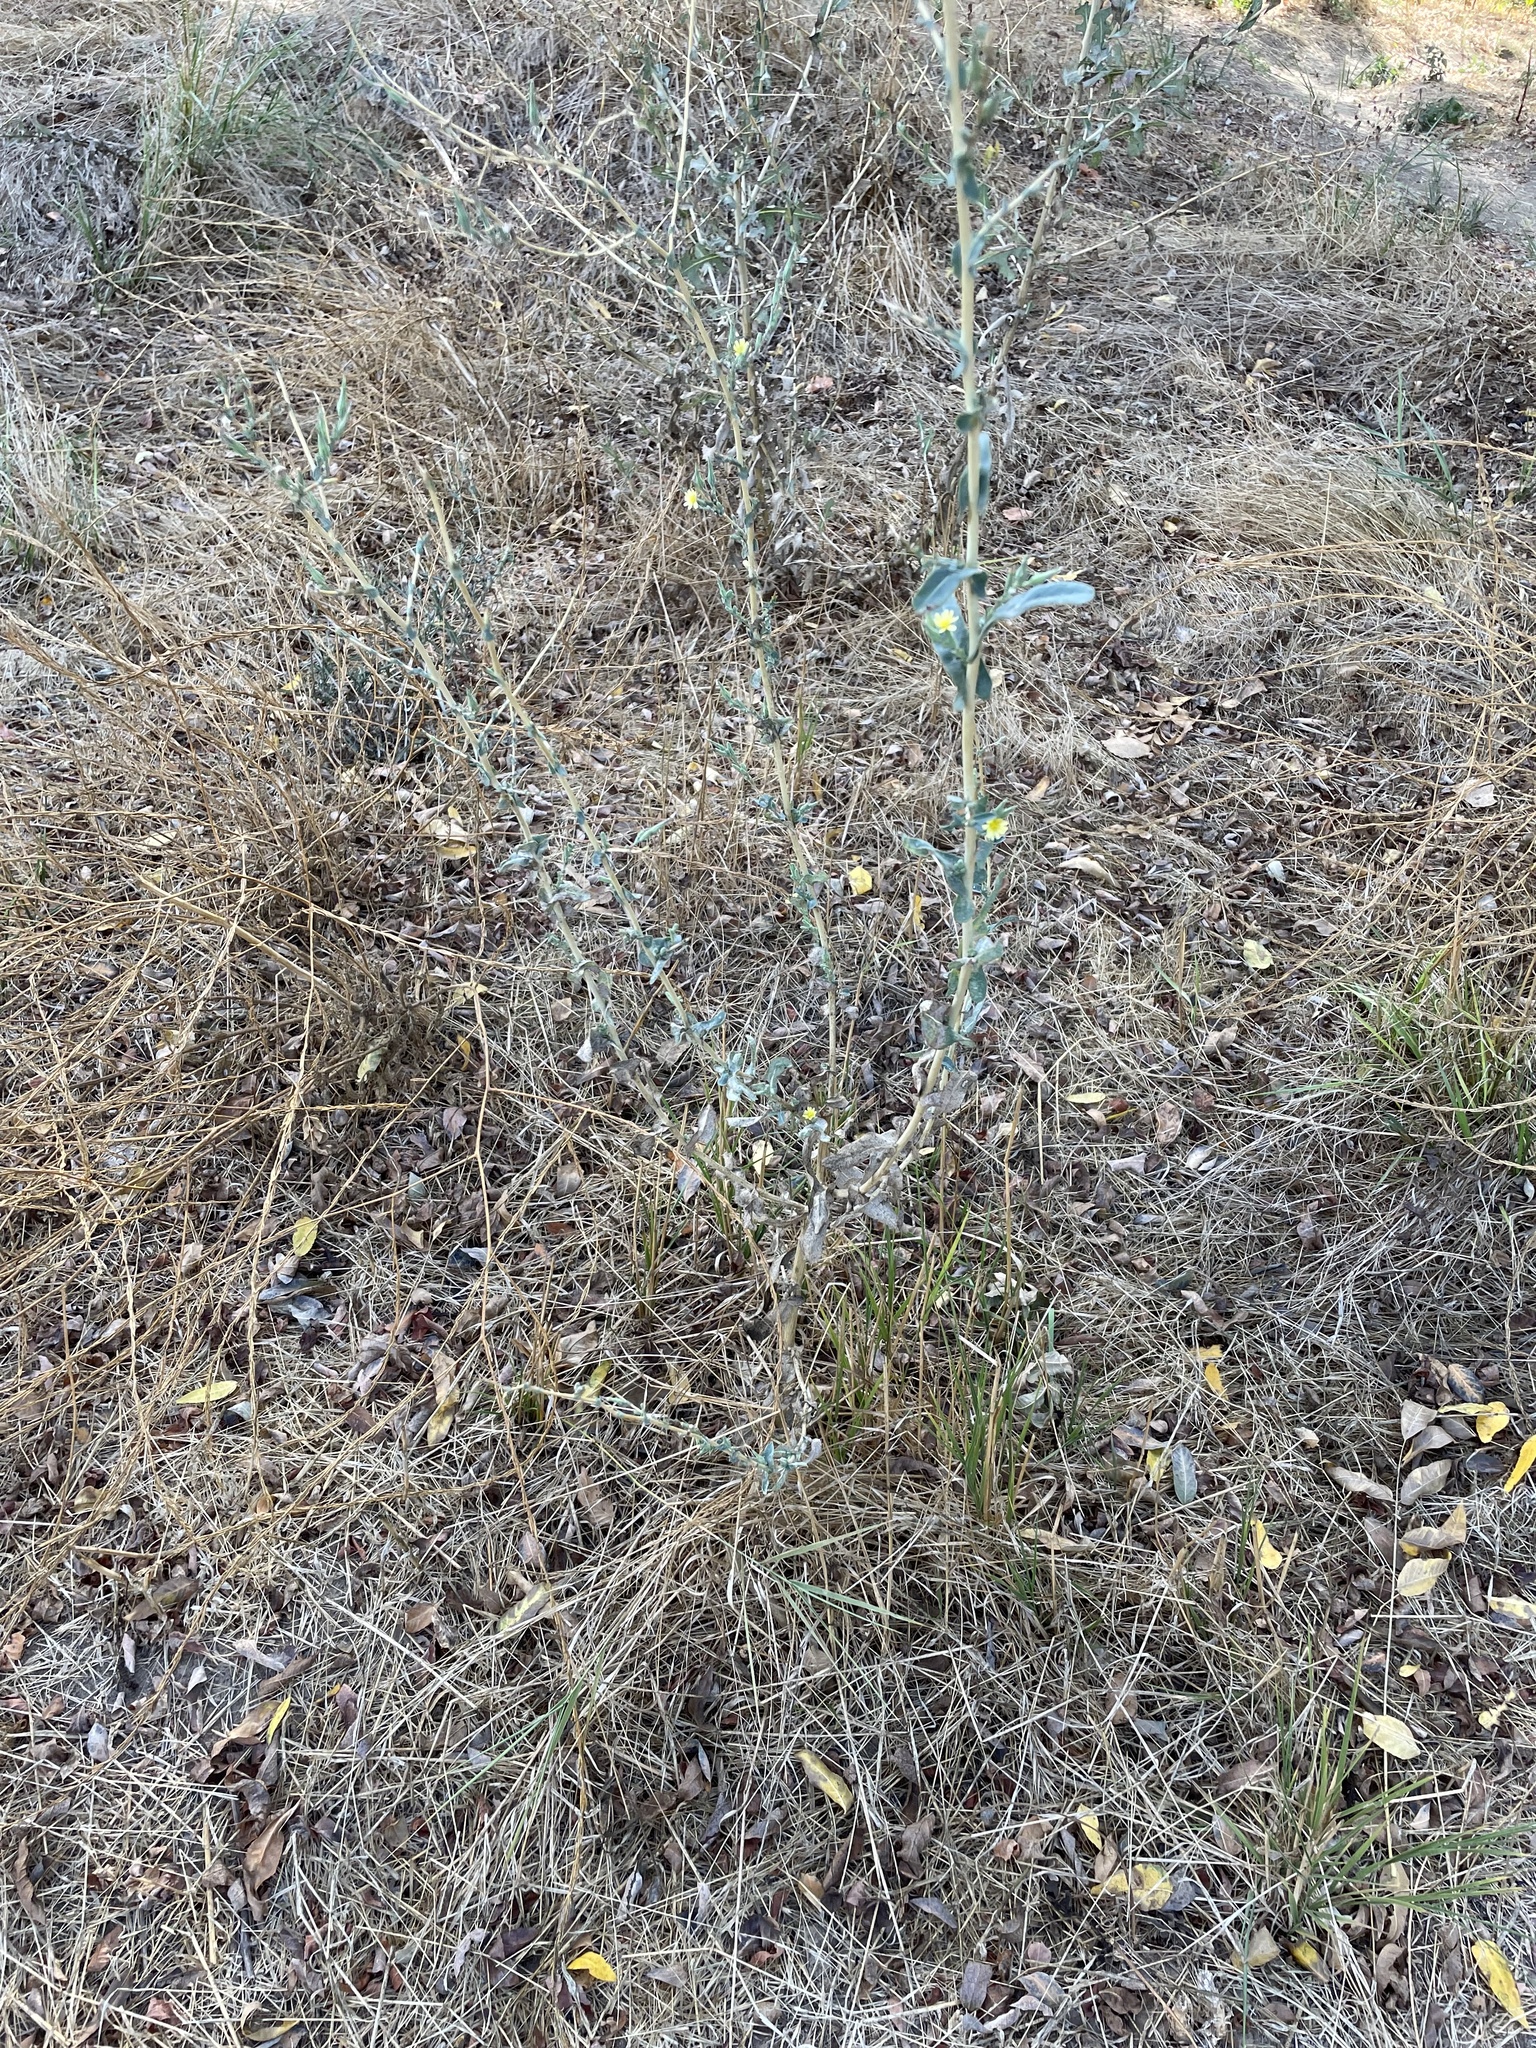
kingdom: Plantae
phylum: Tracheophyta
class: Magnoliopsida
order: Asterales
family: Asteraceae
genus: Lactuca
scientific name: Lactuca serriola
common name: Prickly lettuce
